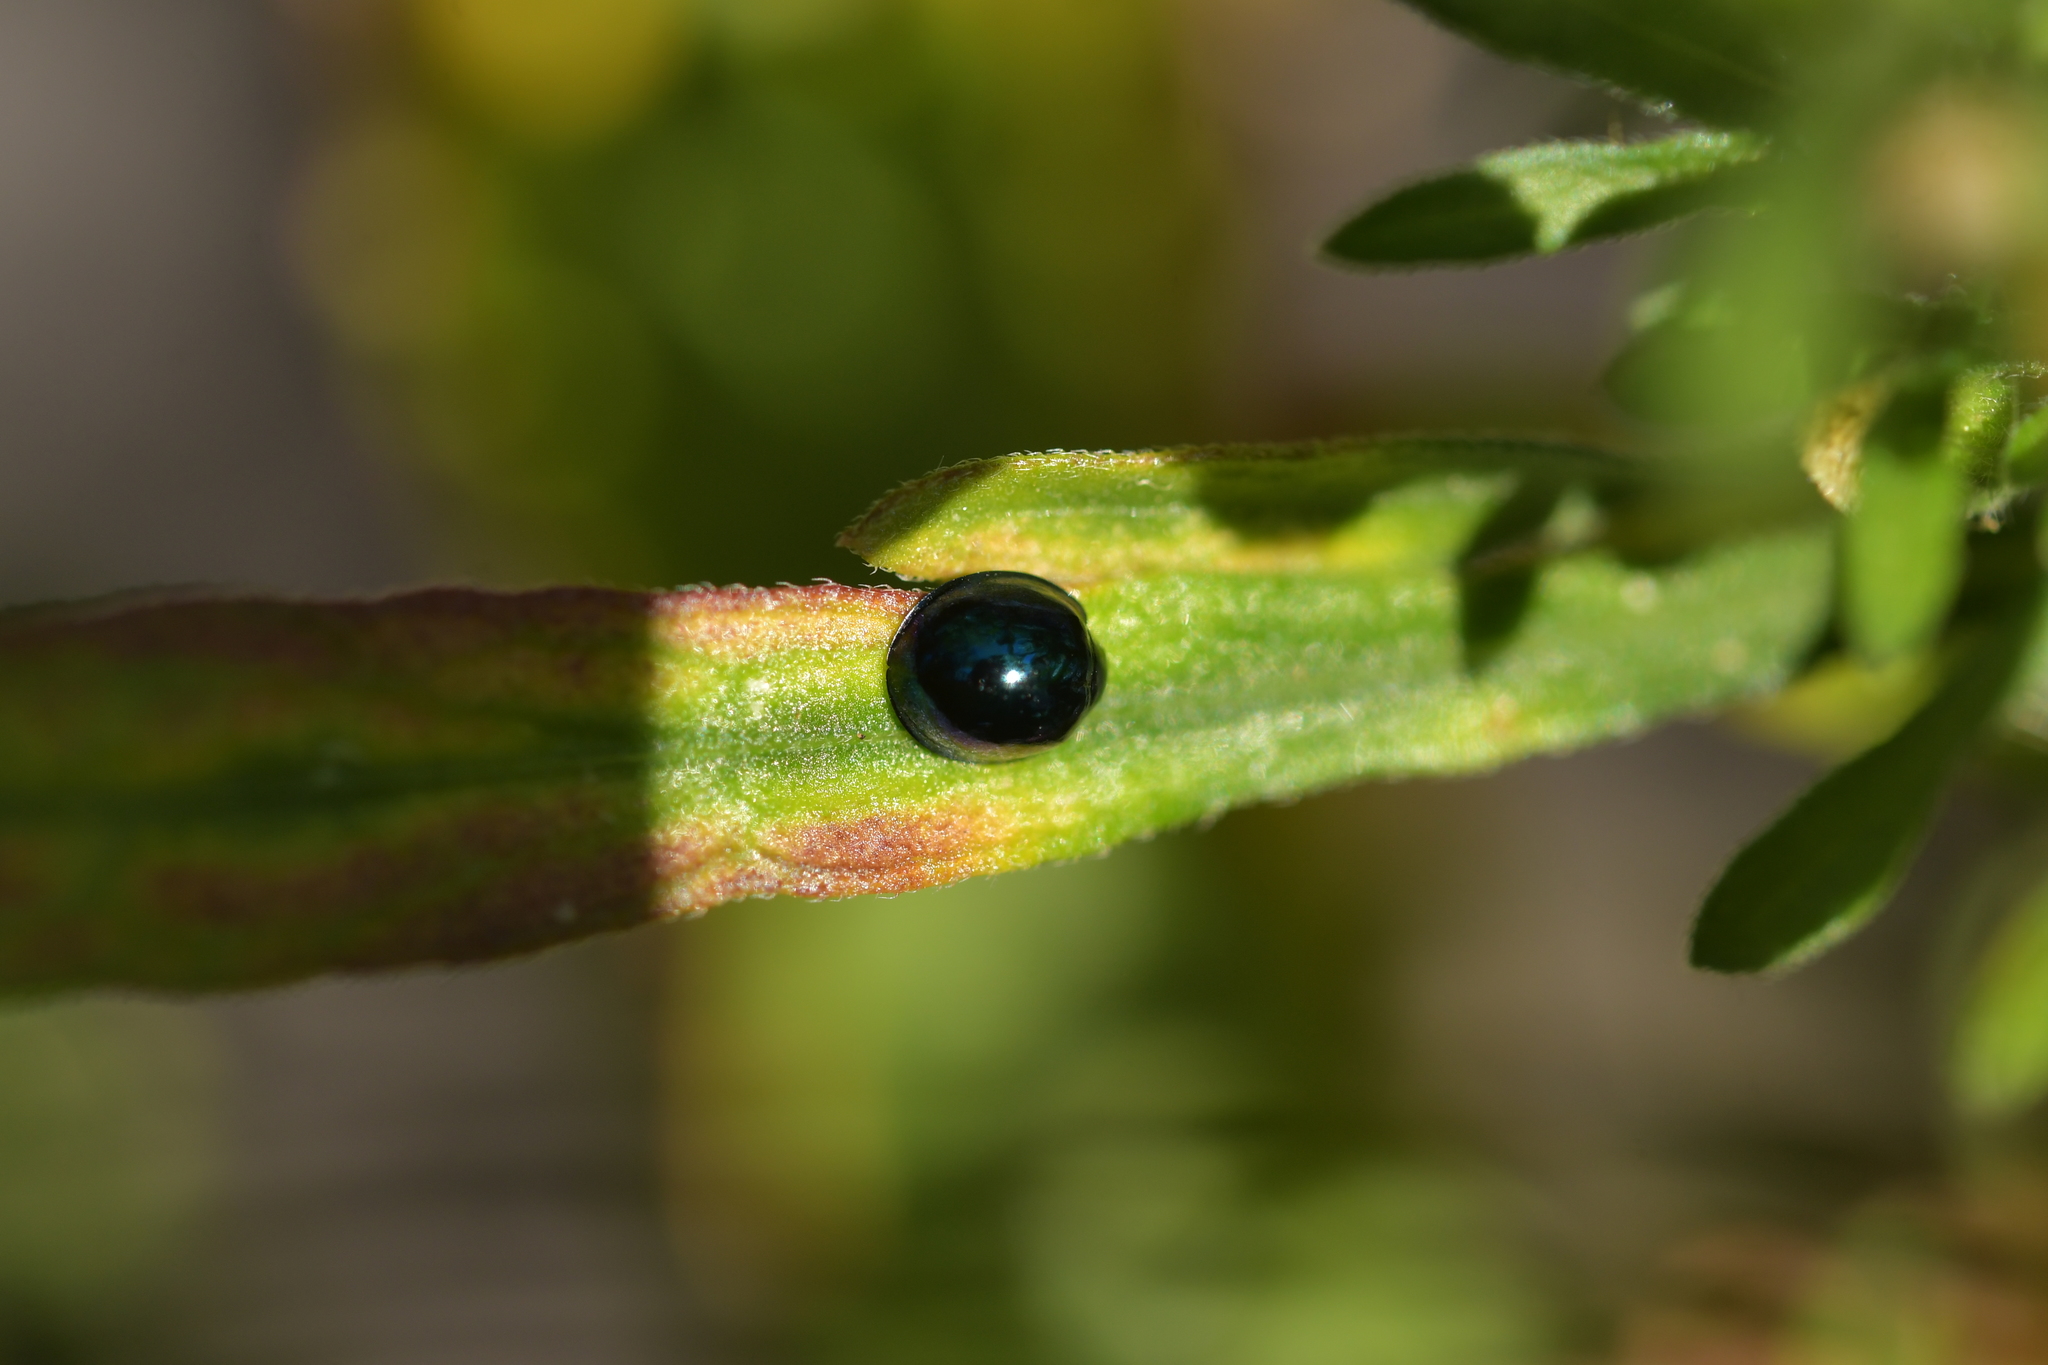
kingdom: Animalia
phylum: Arthropoda
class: Insecta
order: Coleoptera
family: Coccinellidae
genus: Halmus
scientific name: Halmus chalybeus
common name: Steel blue ladybird beetle
